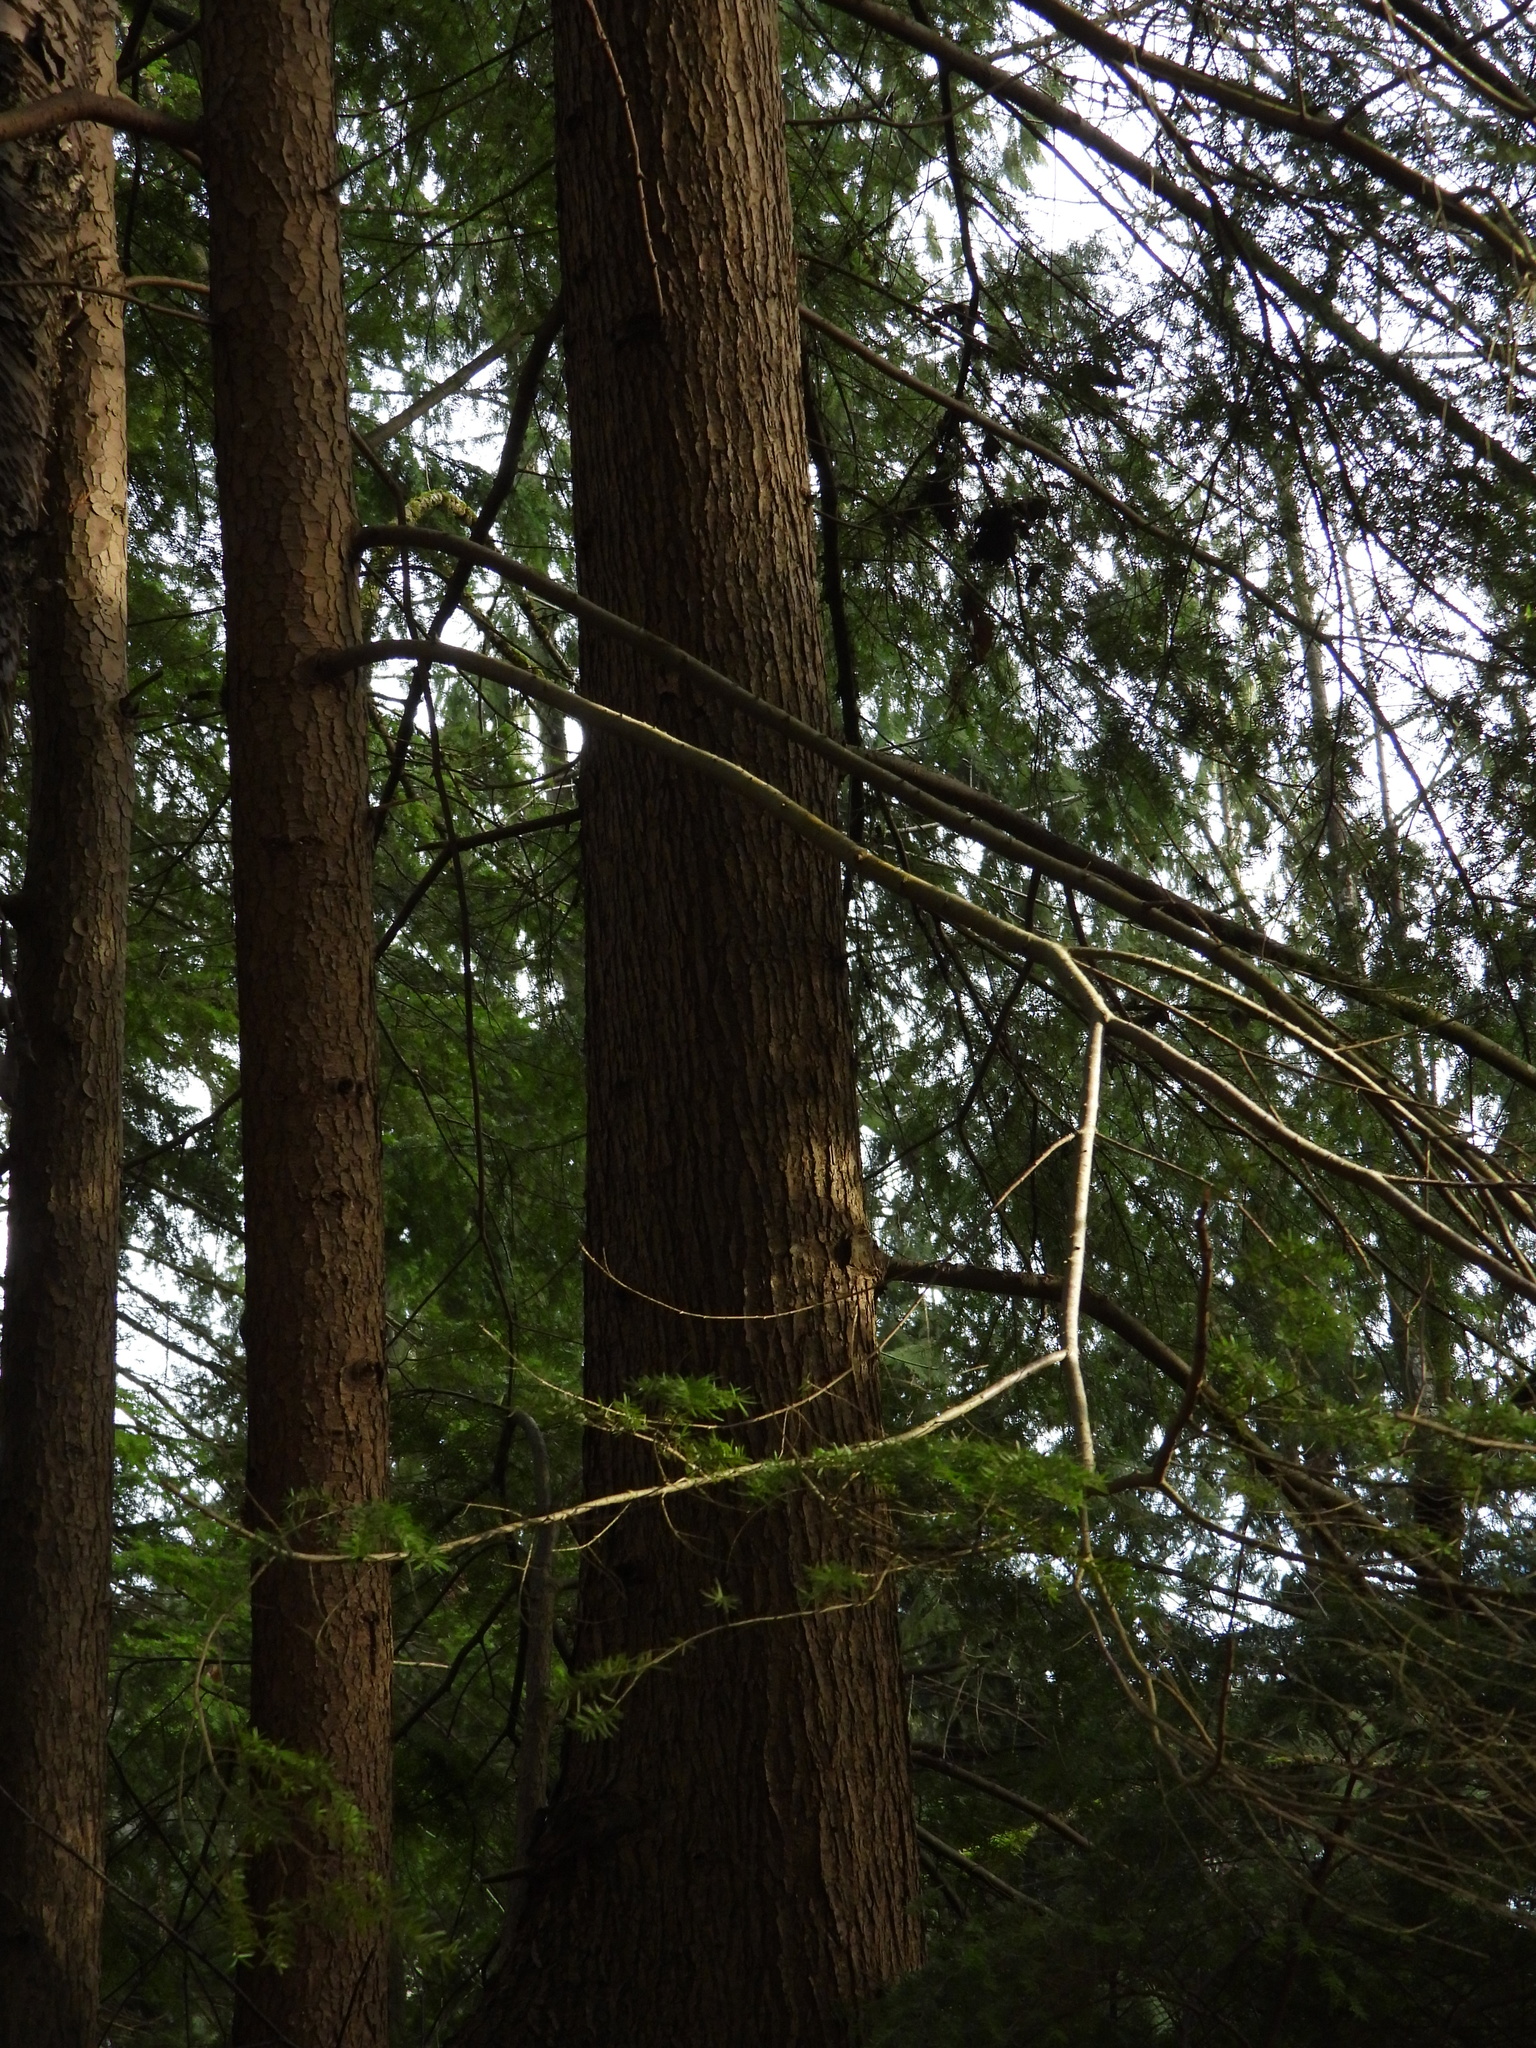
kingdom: Plantae
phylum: Tracheophyta
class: Pinopsida
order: Pinales
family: Pinaceae
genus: Tsuga
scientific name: Tsuga heterophylla
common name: Western hemlock
